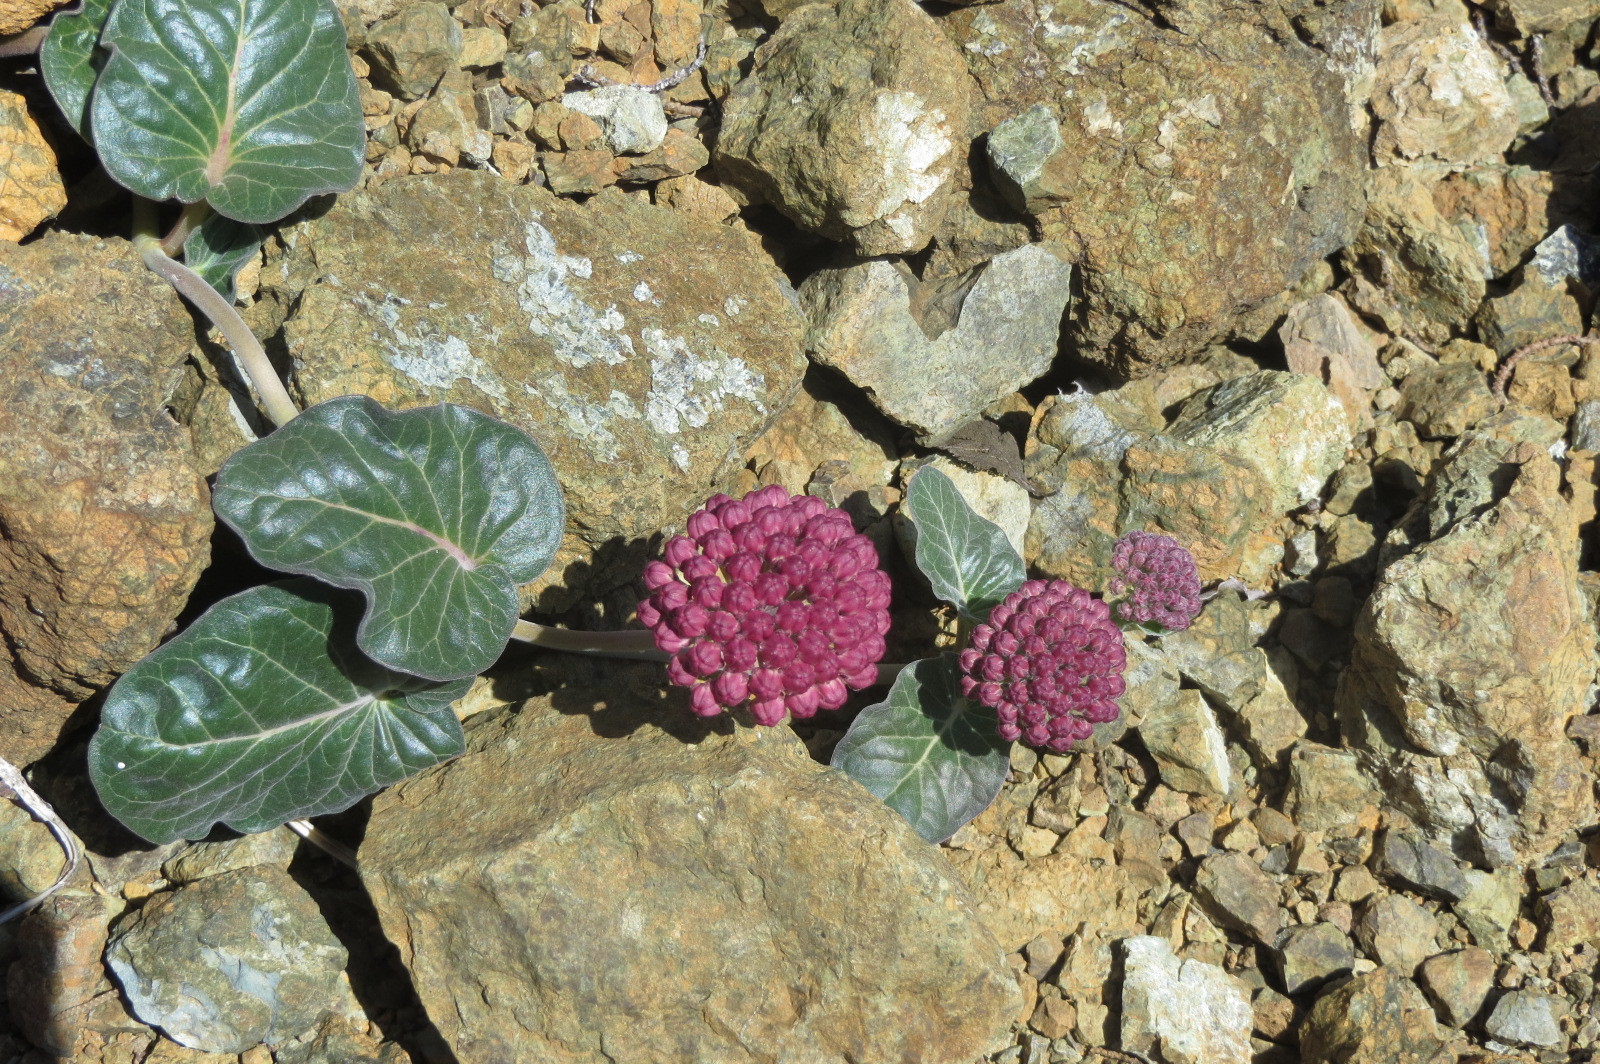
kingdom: Plantae
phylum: Tracheophyta
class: Magnoliopsida
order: Gentianales
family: Apocynaceae
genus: Asclepias
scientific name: Asclepias solanoana
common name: Serpentine milkweed
